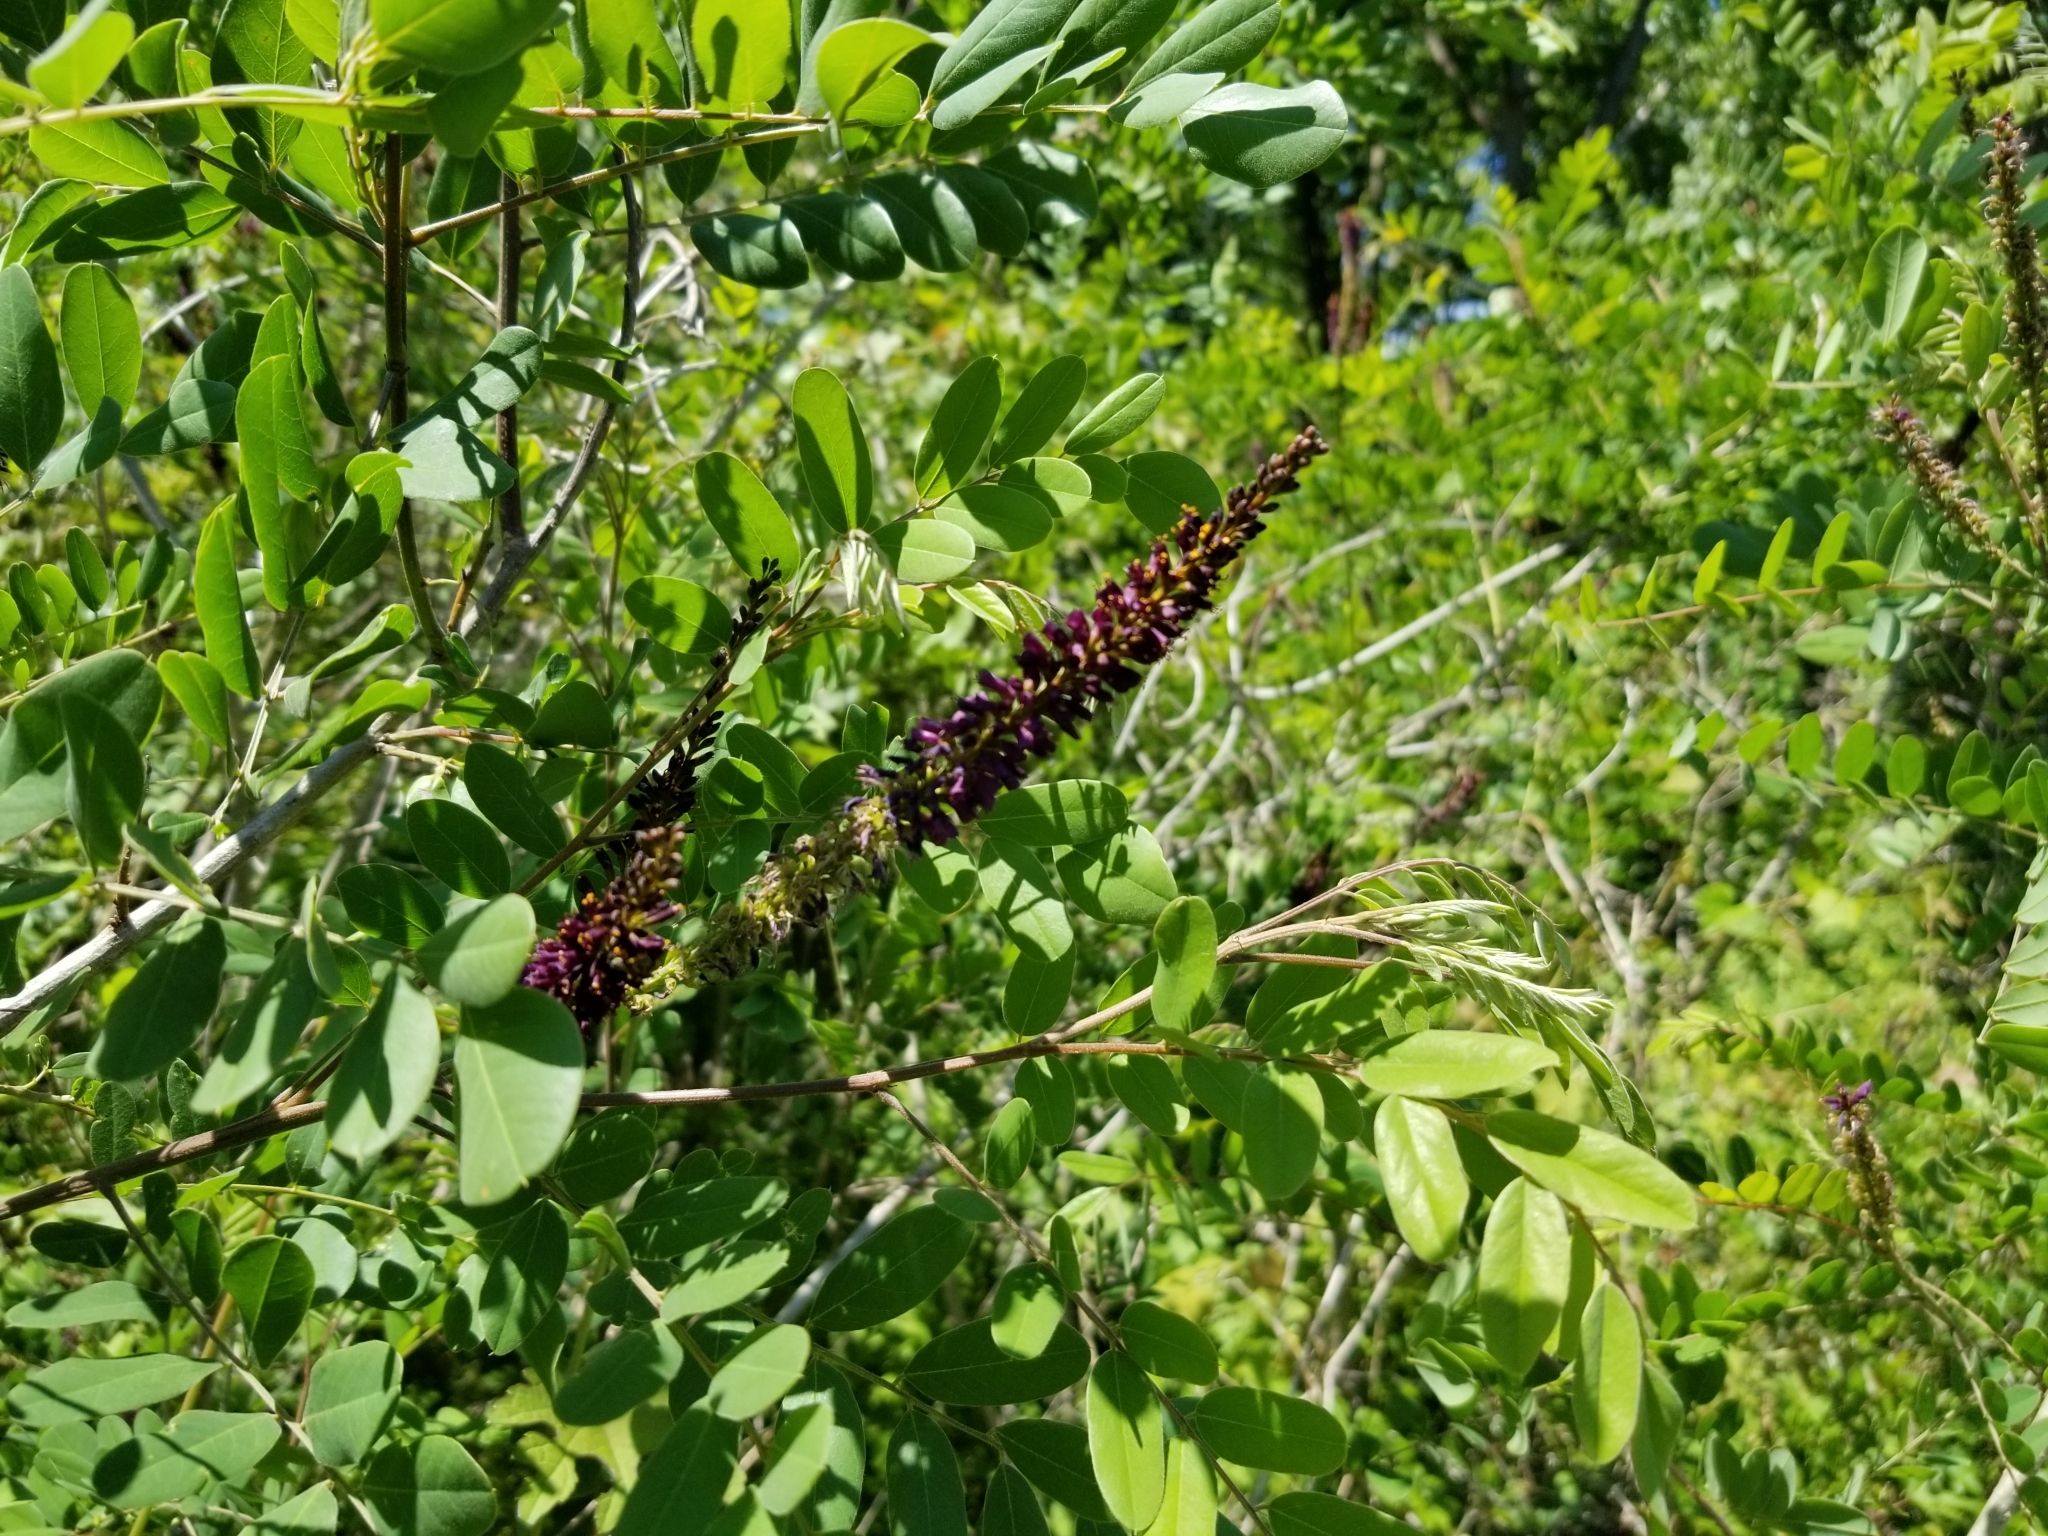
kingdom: Plantae
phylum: Tracheophyta
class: Magnoliopsida
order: Fabales
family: Fabaceae
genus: Amorpha
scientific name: Amorpha fruticosa
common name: False indigo
